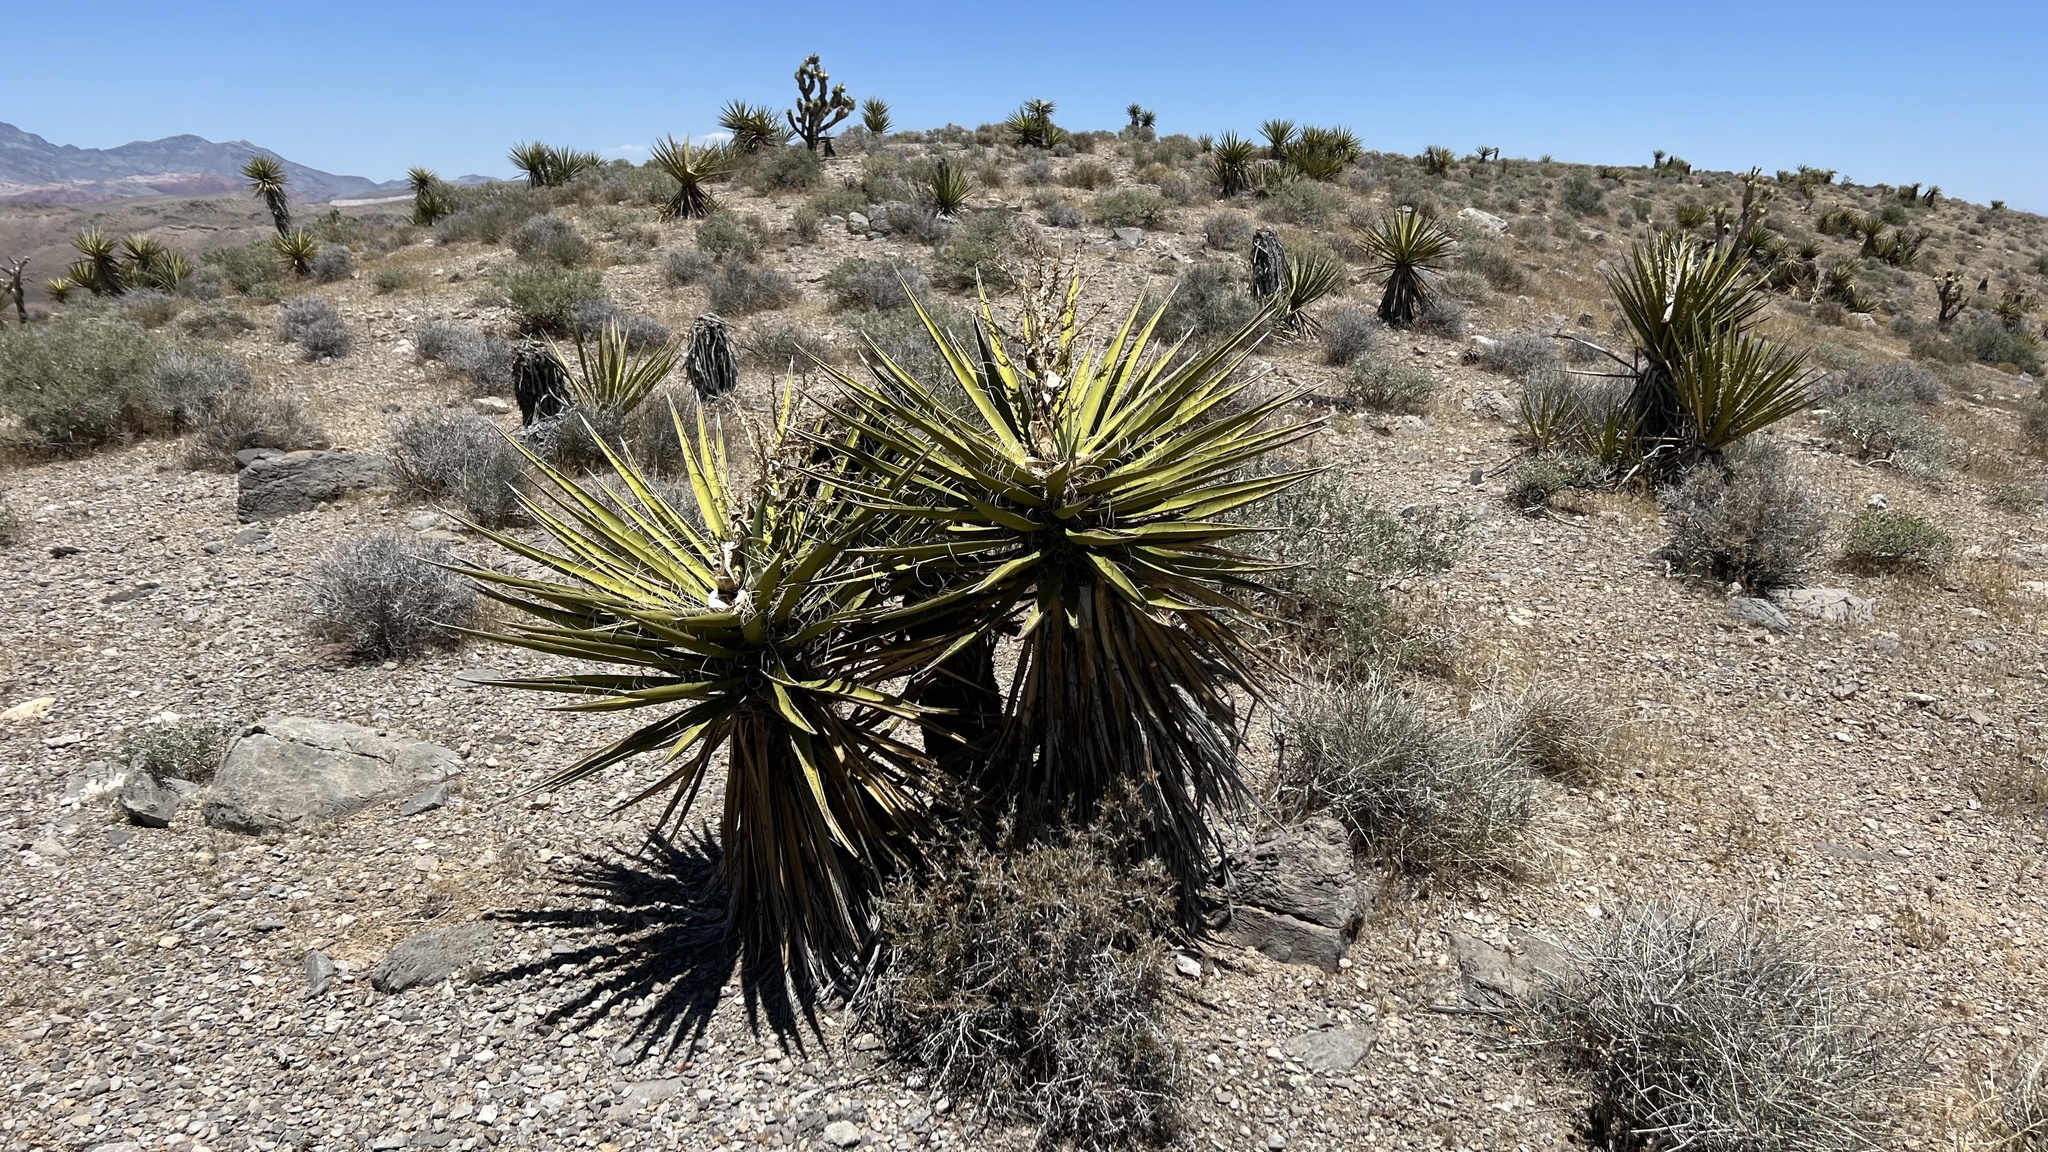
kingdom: Plantae
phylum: Tracheophyta
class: Liliopsida
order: Asparagales
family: Asparagaceae
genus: Yucca
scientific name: Yucca schidigera
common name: Mojave yucca
